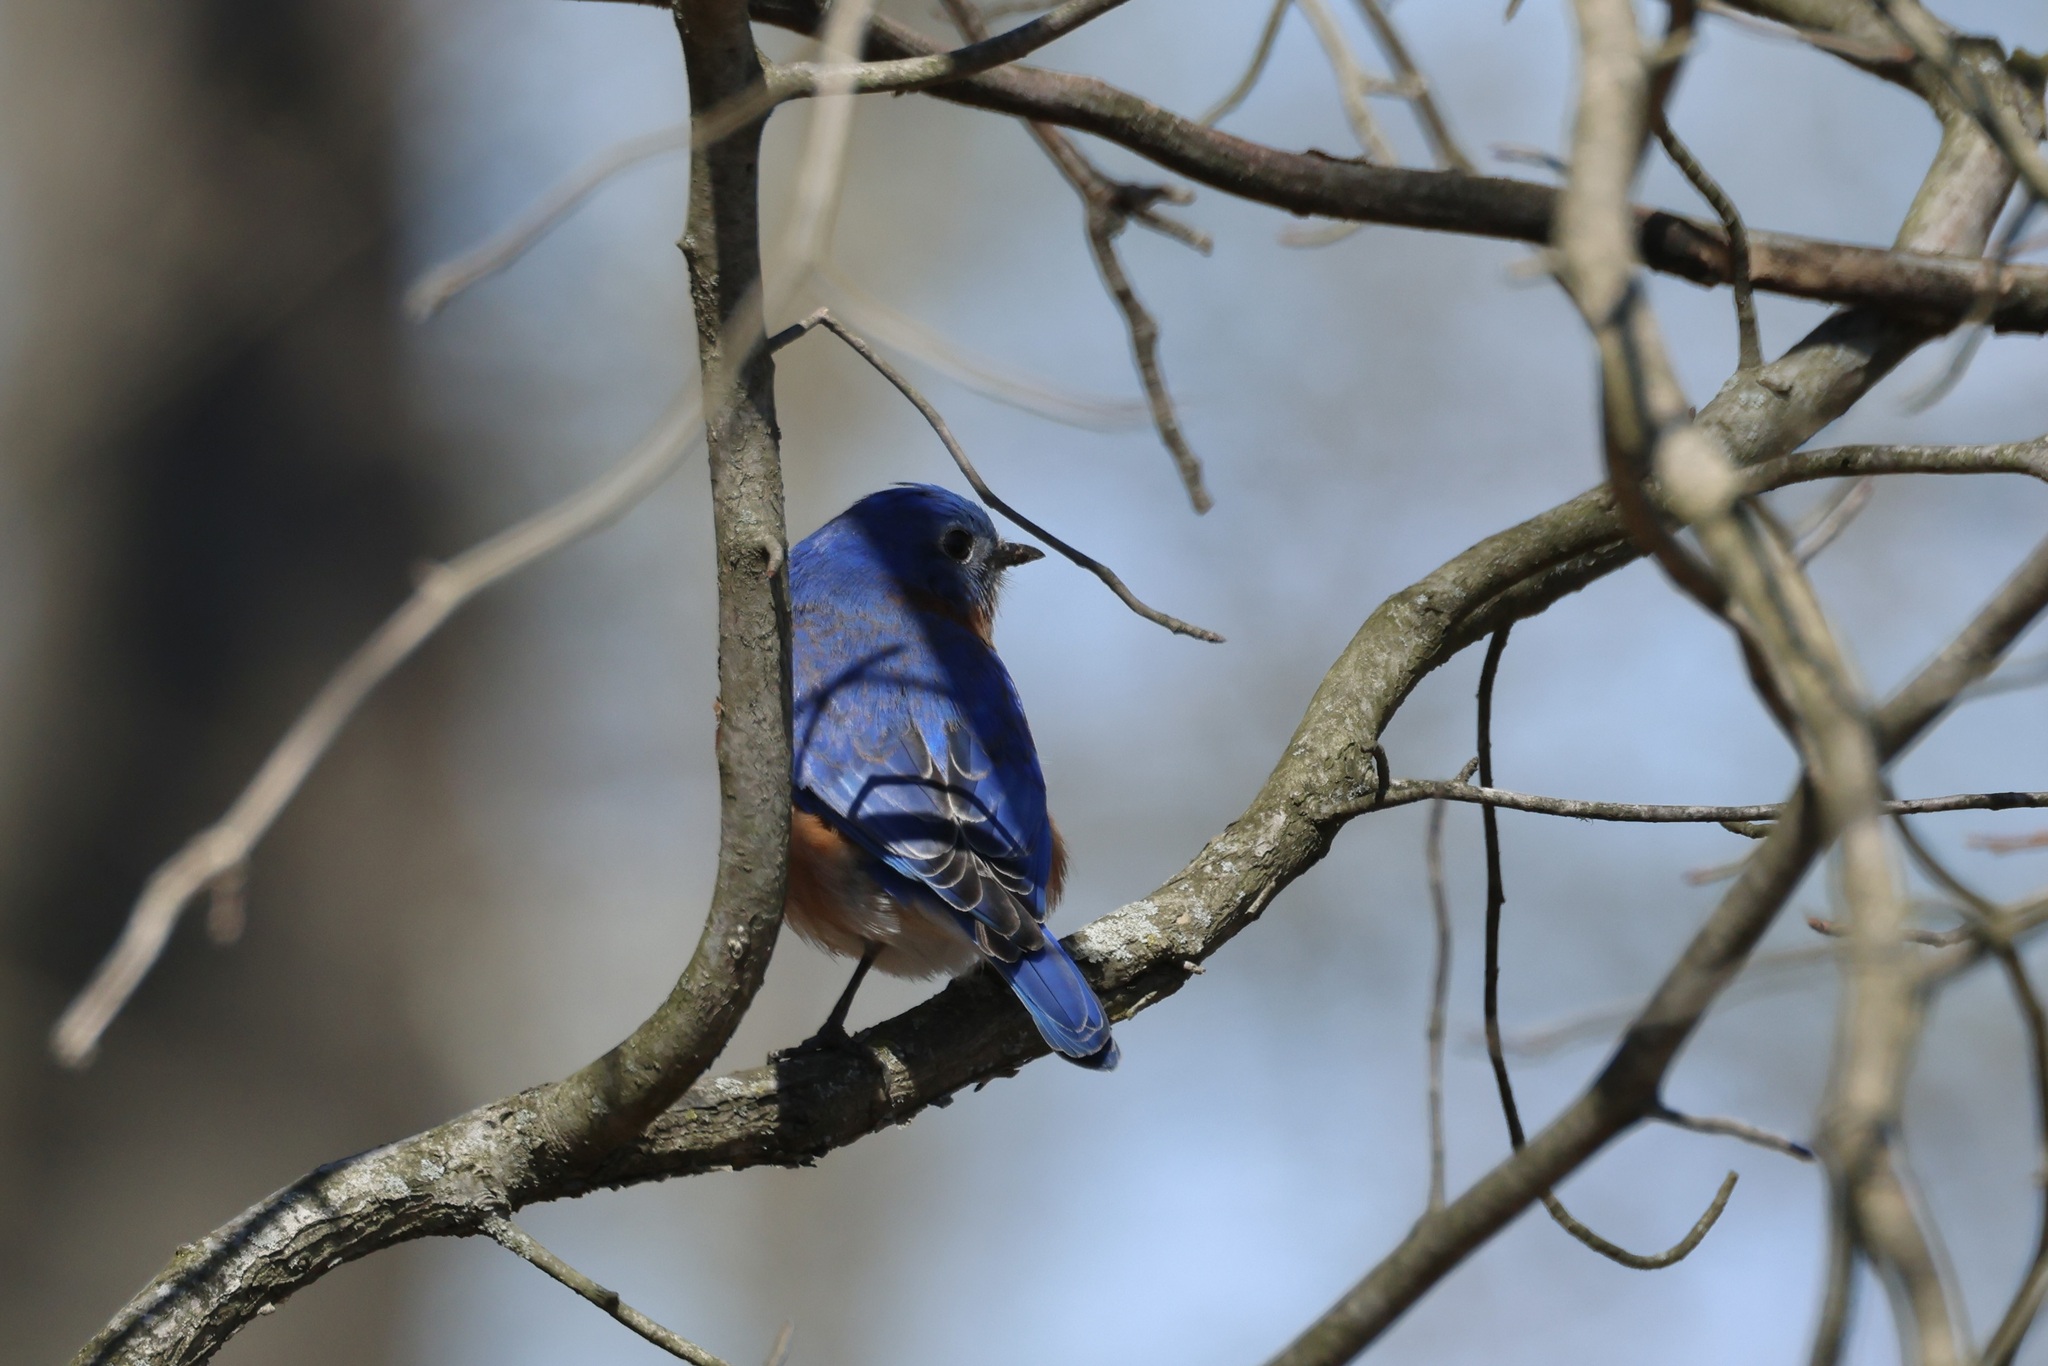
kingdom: Animalia
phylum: Chordata
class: Aves
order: Passeriformes
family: Turdidae
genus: Sialia
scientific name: Sialia sialis
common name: Eastern bluebird
